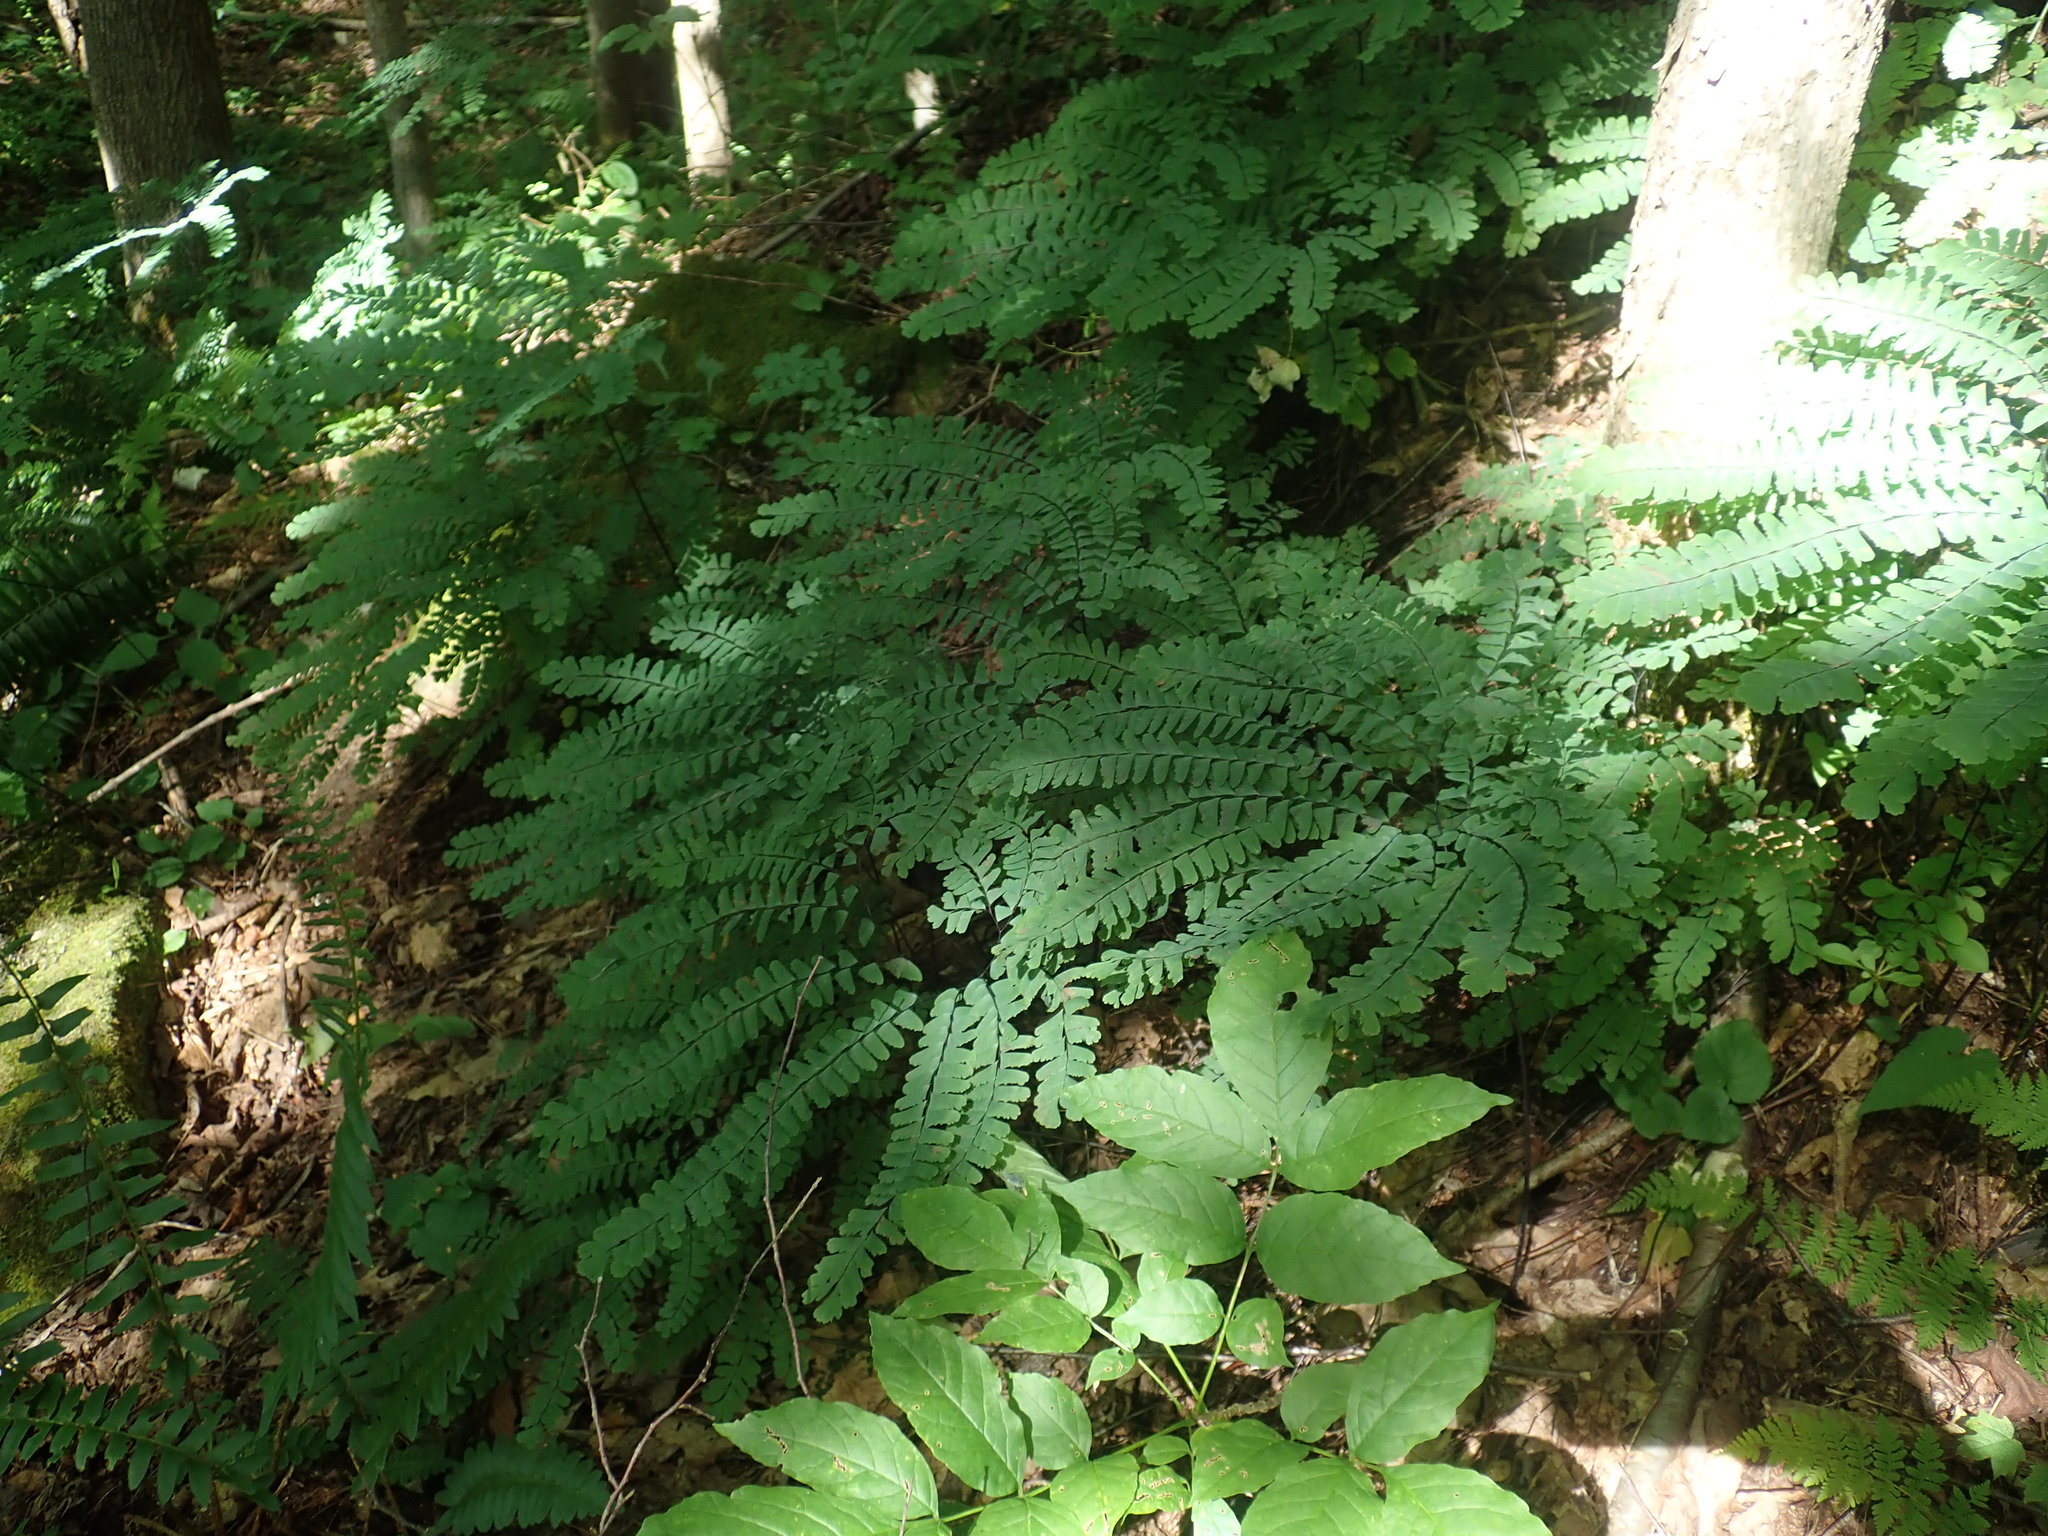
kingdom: Plantae
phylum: Tracheophyta
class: Polypodiopsida
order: Polypodiales
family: Pteridaceae
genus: Adiantum
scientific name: Adiantum pedatum
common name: Five-finger fern
